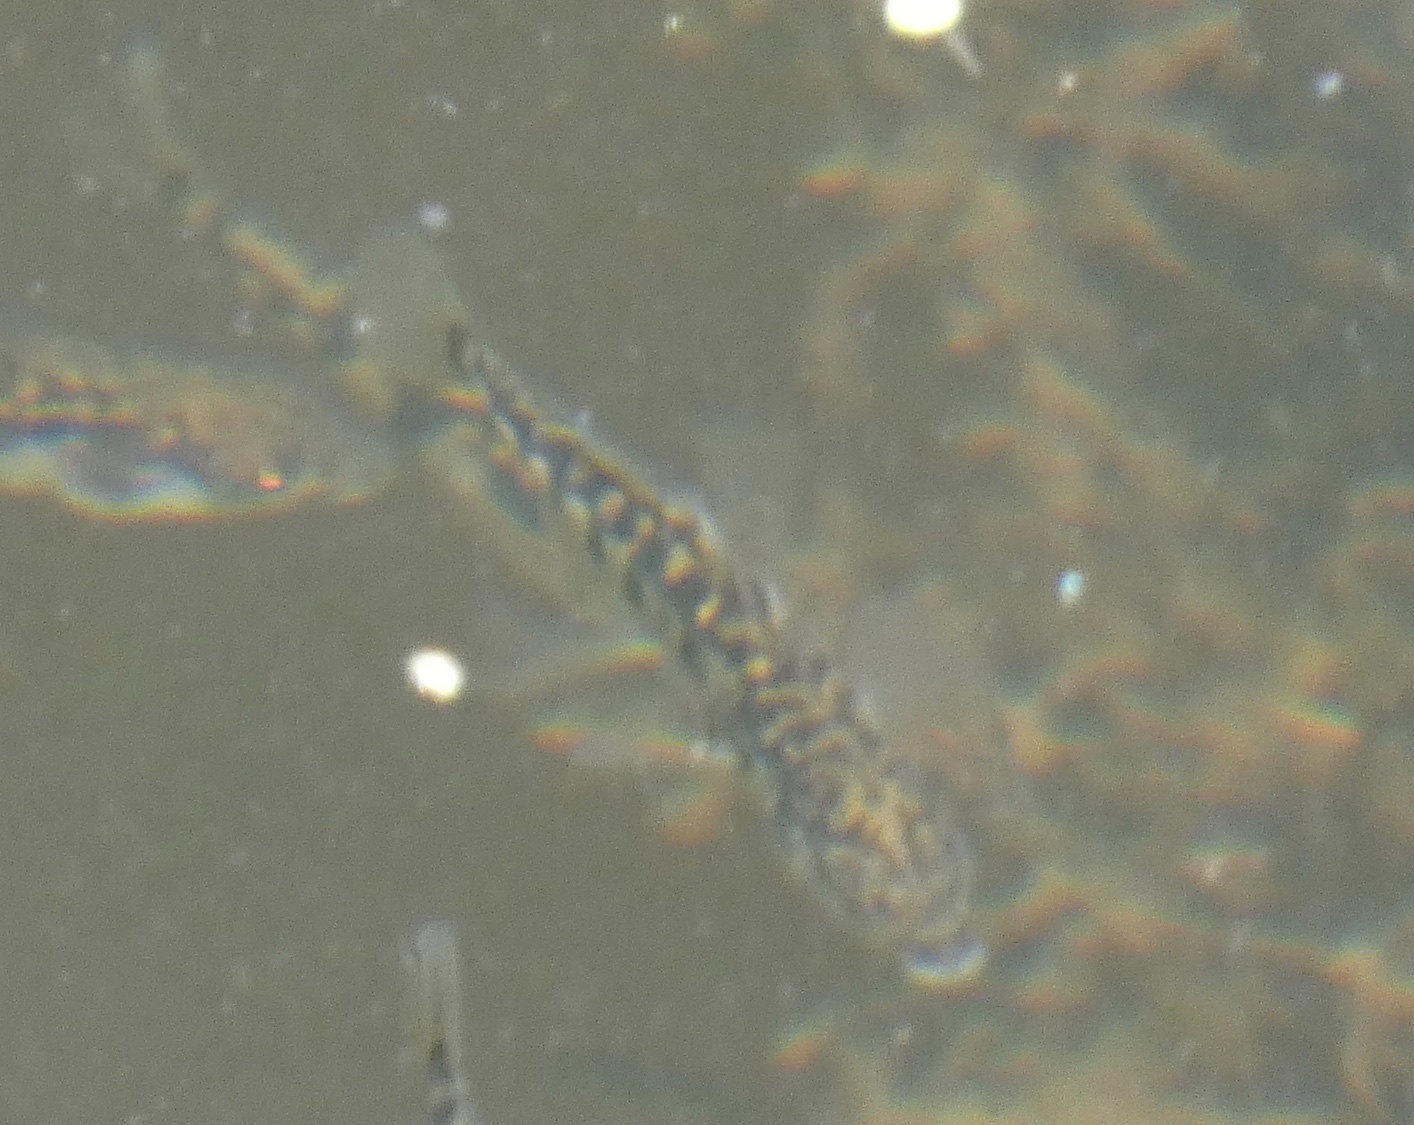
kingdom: Animalia
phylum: Chordata
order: Gasterosteiformes
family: Gasterosteidae
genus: Gasterosteus
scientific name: Gasterosteus aculeatus
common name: Three-spined stickleback
